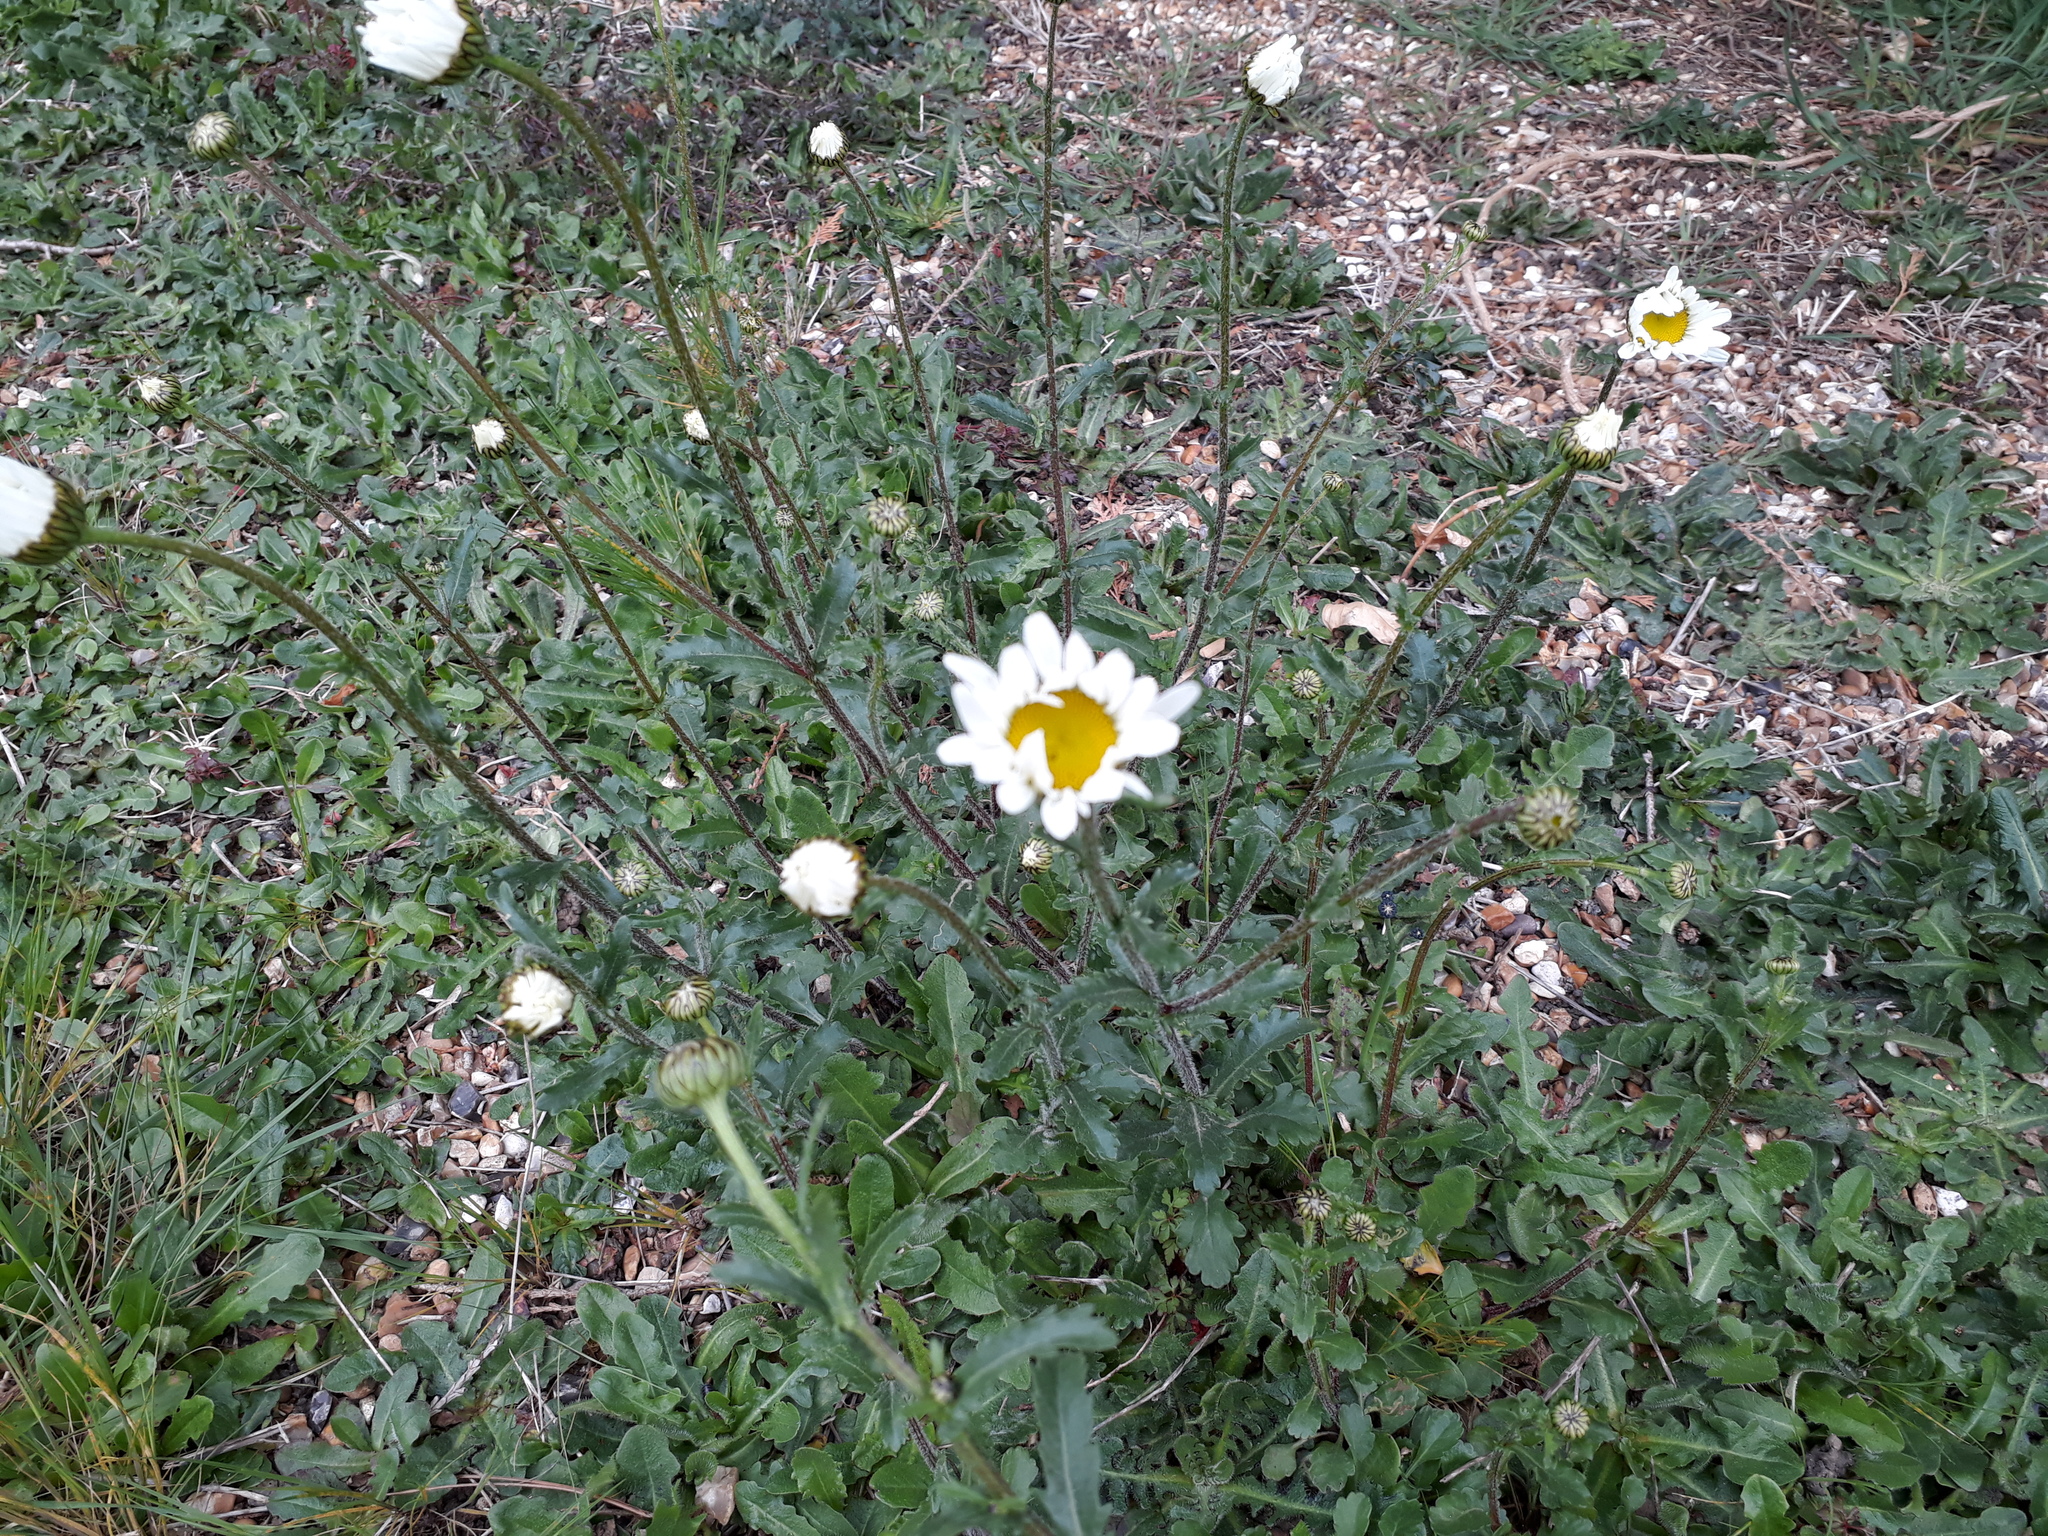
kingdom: Plantae
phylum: Tracheophyta
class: Magnoliopsida
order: Asterales
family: Asteraceae
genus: Leucanthemum
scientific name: Leucanthemum vulgare
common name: Oxeye daisy
